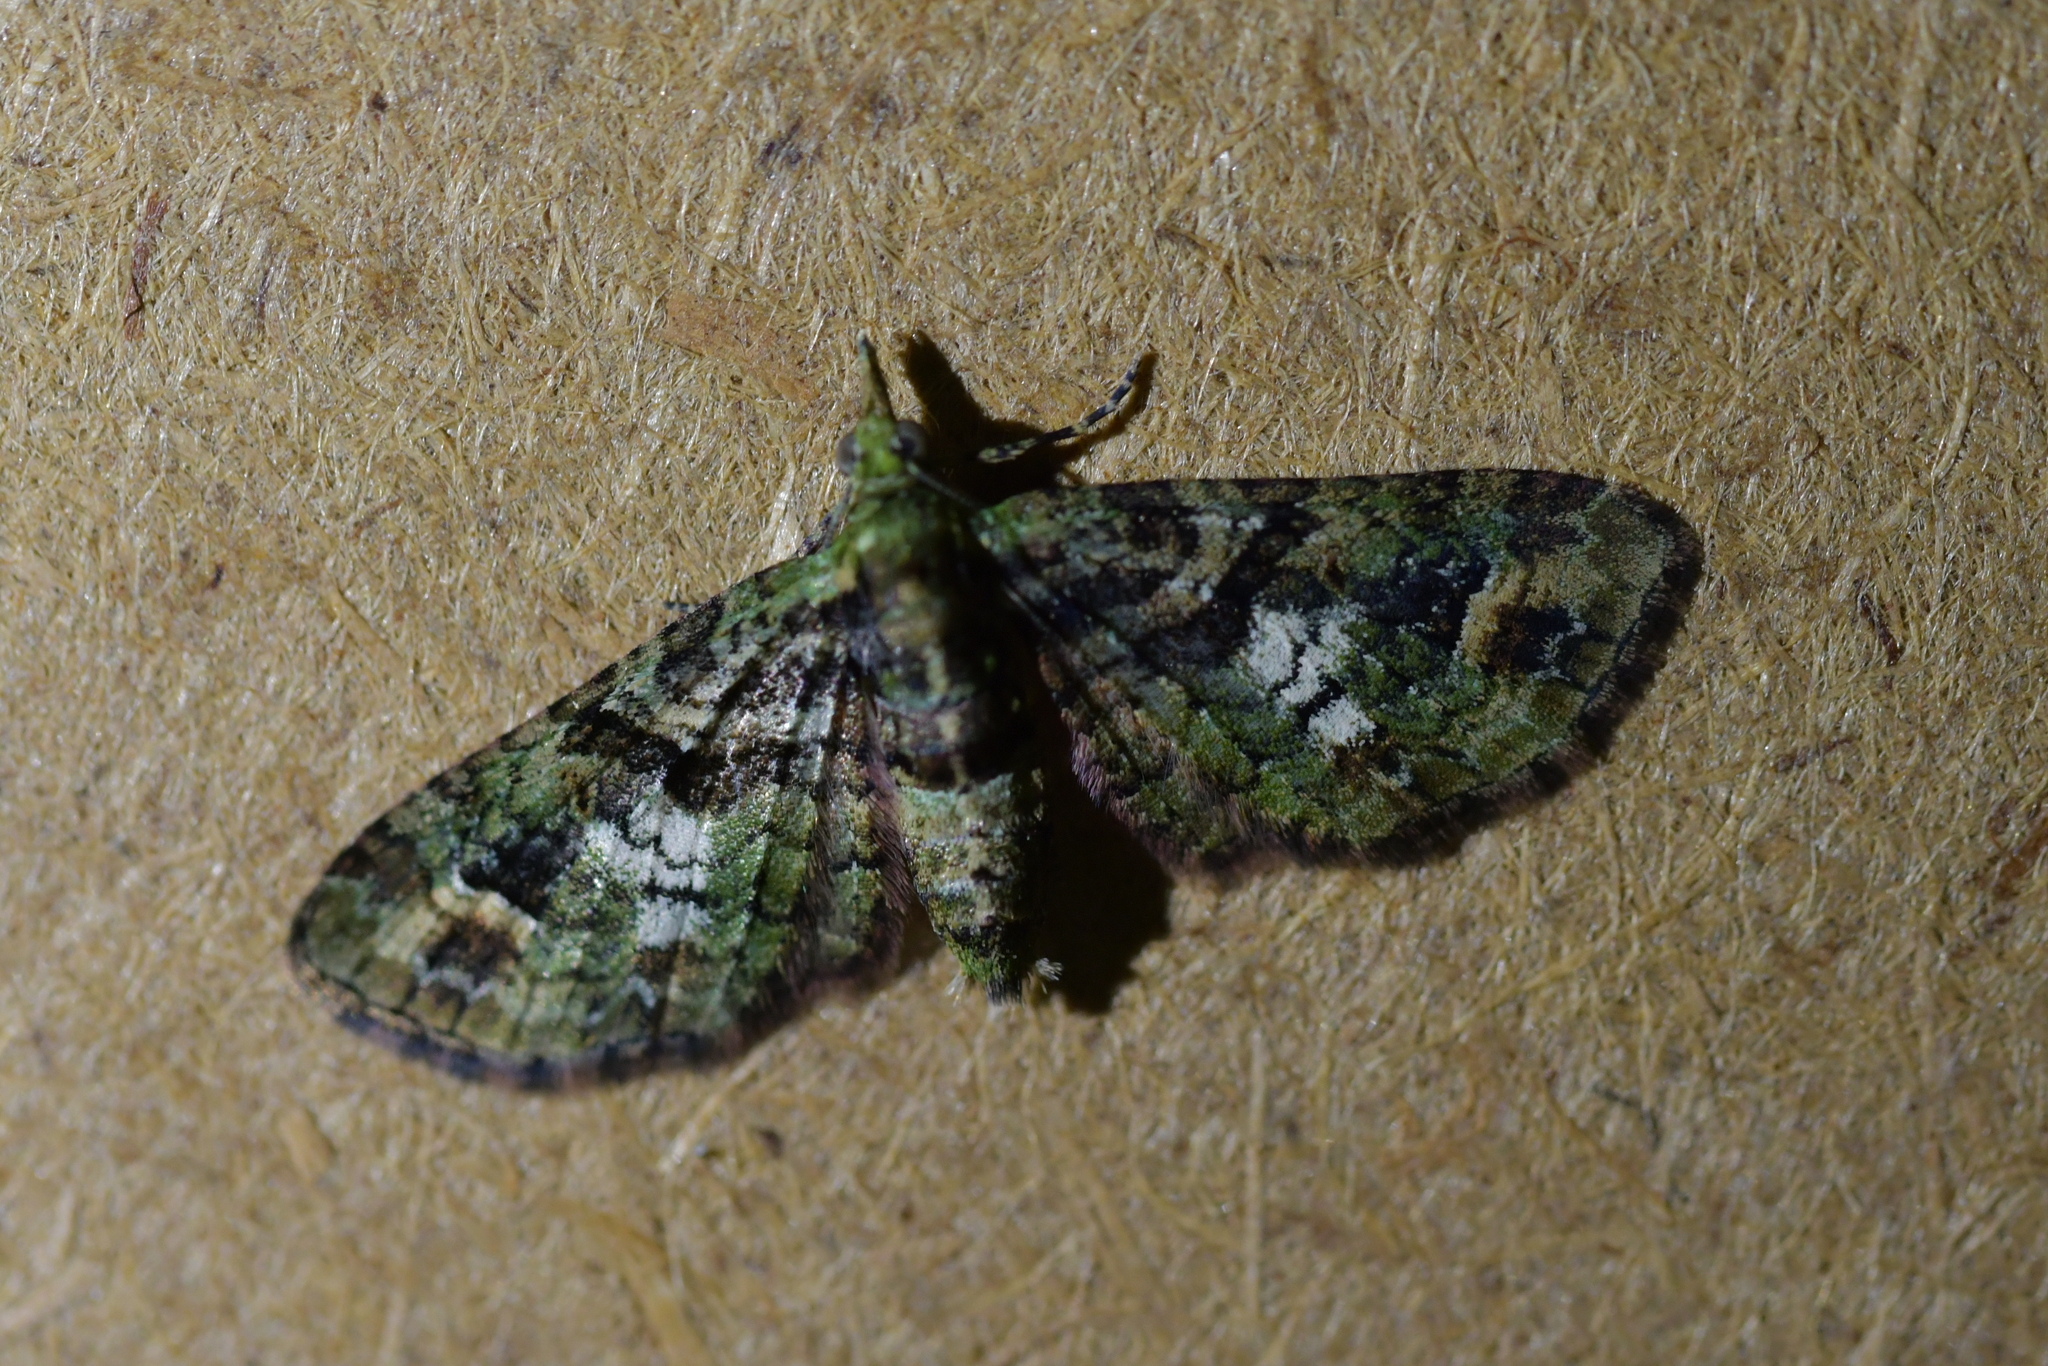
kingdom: Animalia
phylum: Arthropoda
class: Insecta
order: Lepidoptera
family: Geometridae
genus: Idaea
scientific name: Idaea mutanda
